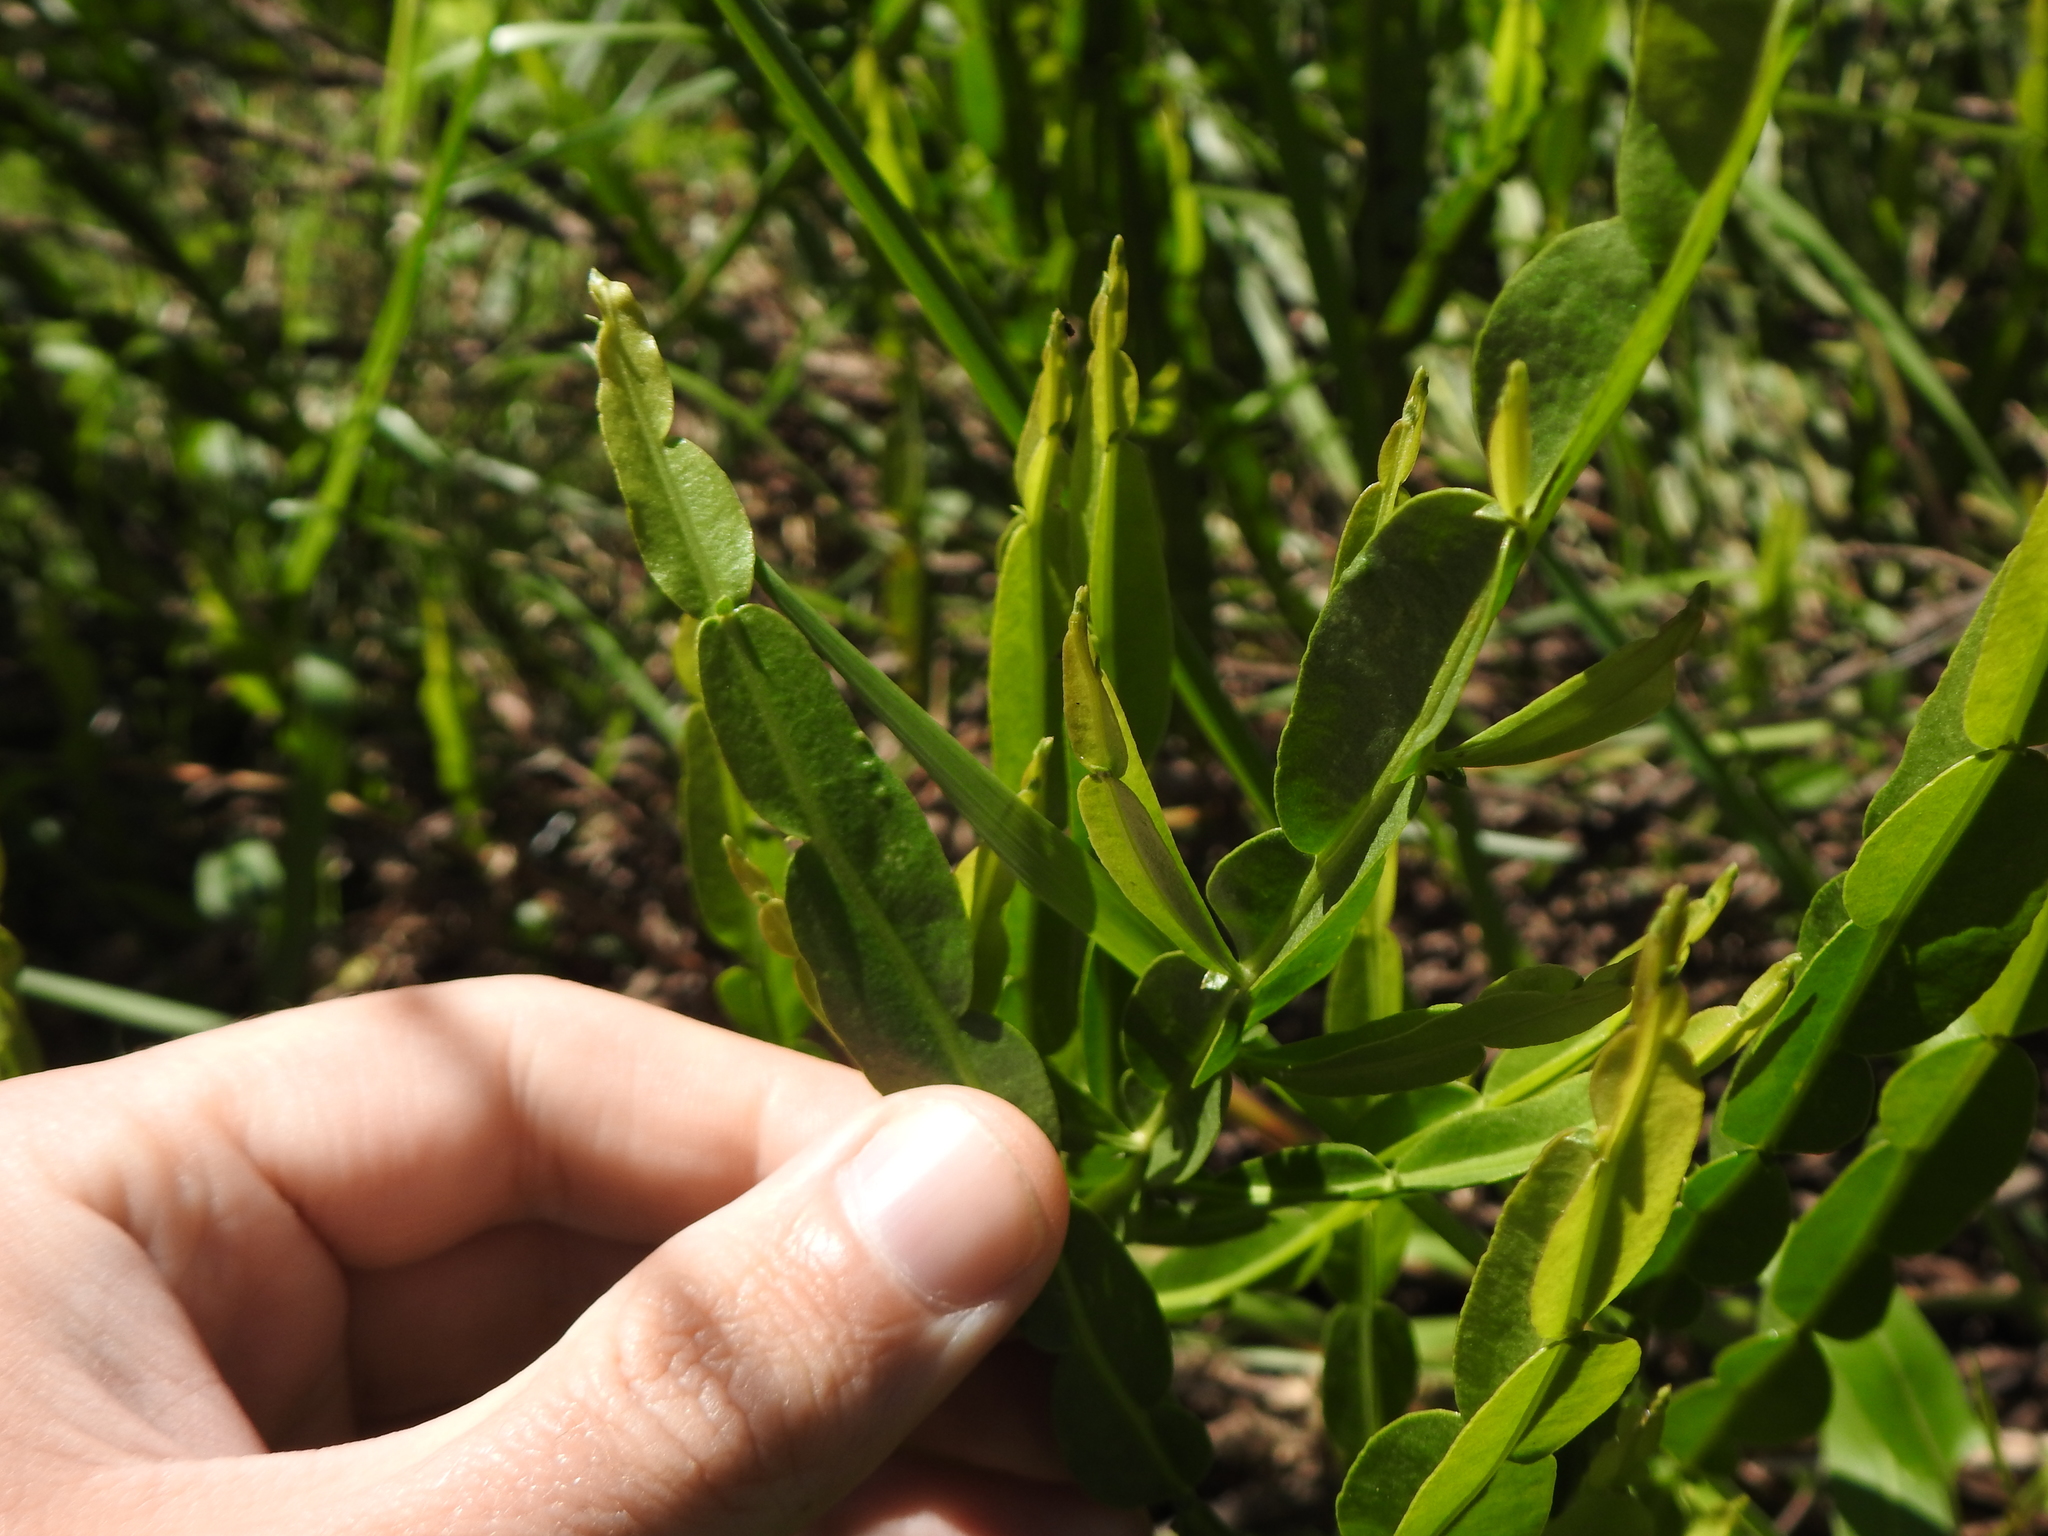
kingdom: Plantae
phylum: Tracheophyta
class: Magnoliopsida
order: Asterales
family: Asteraceae
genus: Baccharis
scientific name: Baccharis trimera
